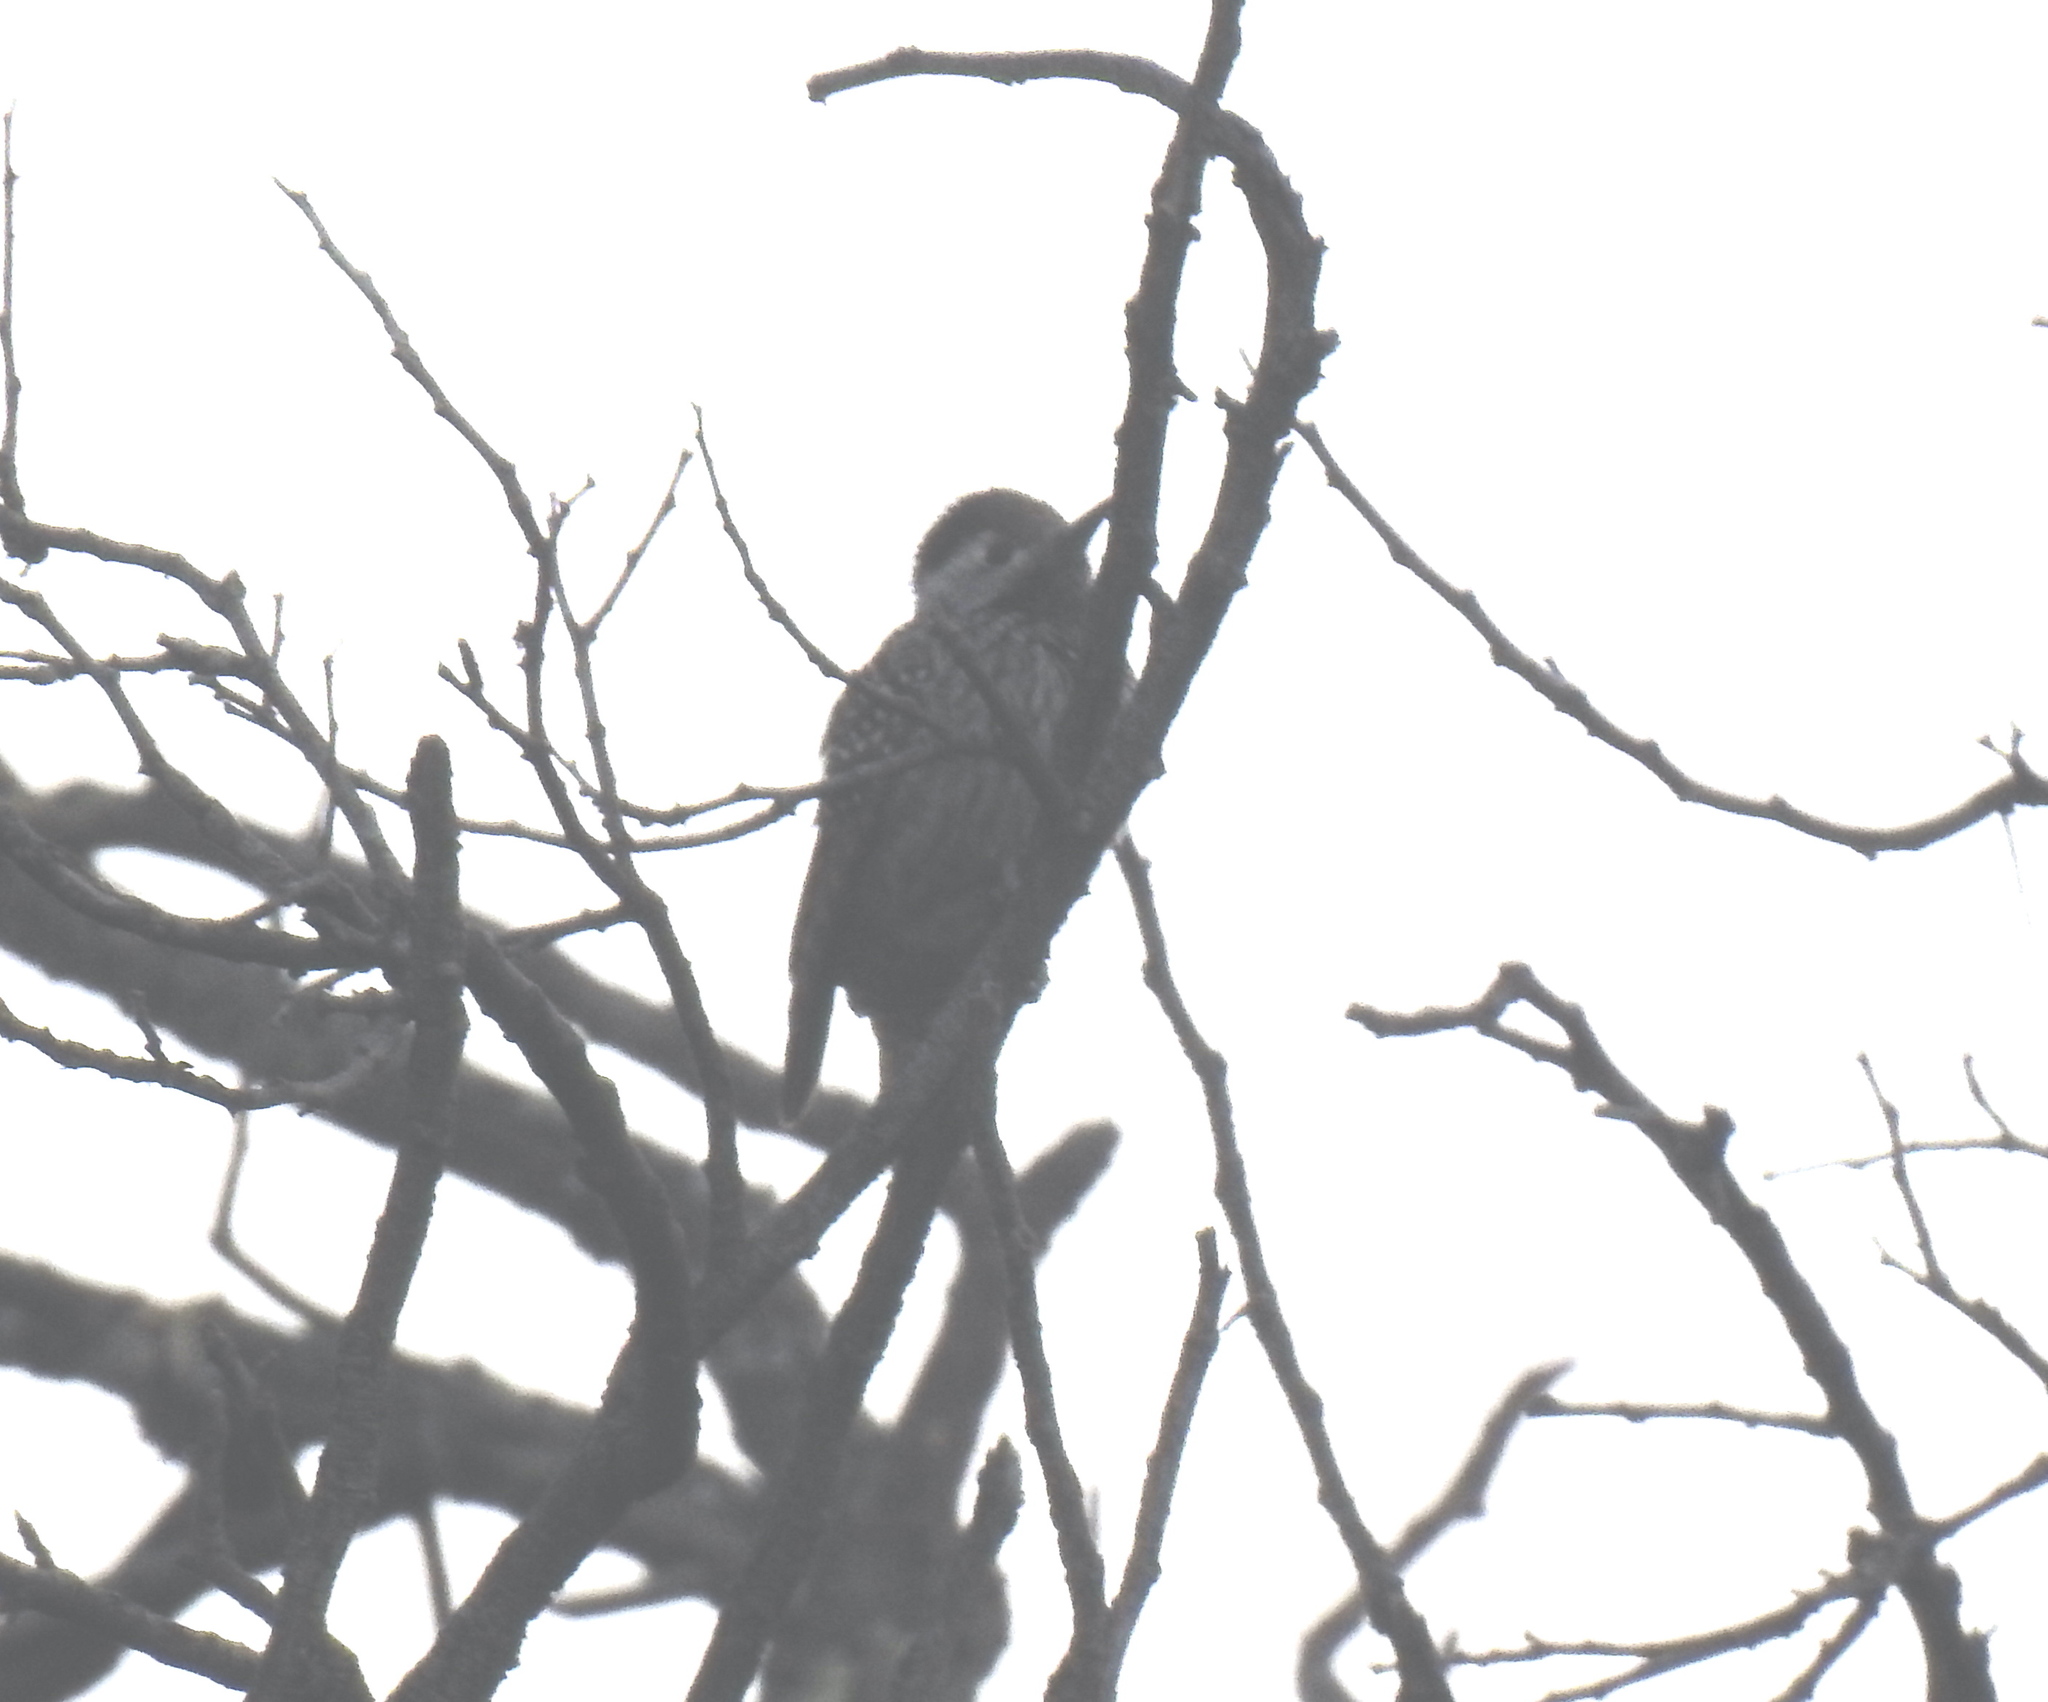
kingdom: Animalia
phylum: Chordata
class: Aves
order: Piciformes
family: Picidae
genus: Dendropicos
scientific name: Dendropicos fuscescens
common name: Cardinal woodpecker
